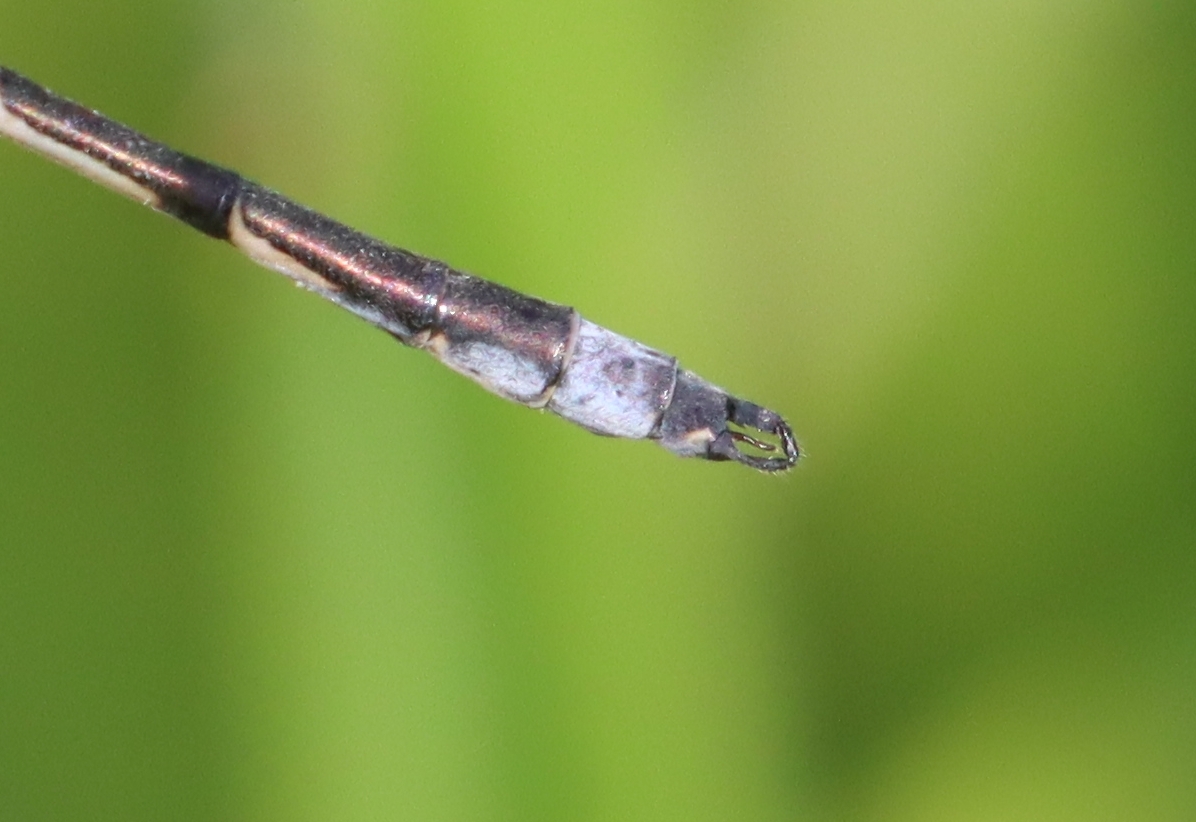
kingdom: Animalia
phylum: Arthropoda
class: Insecta
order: Odonata
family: Lestidae
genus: Lestes
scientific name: Lestes forcipatus
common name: Sweetflag spreadwing
